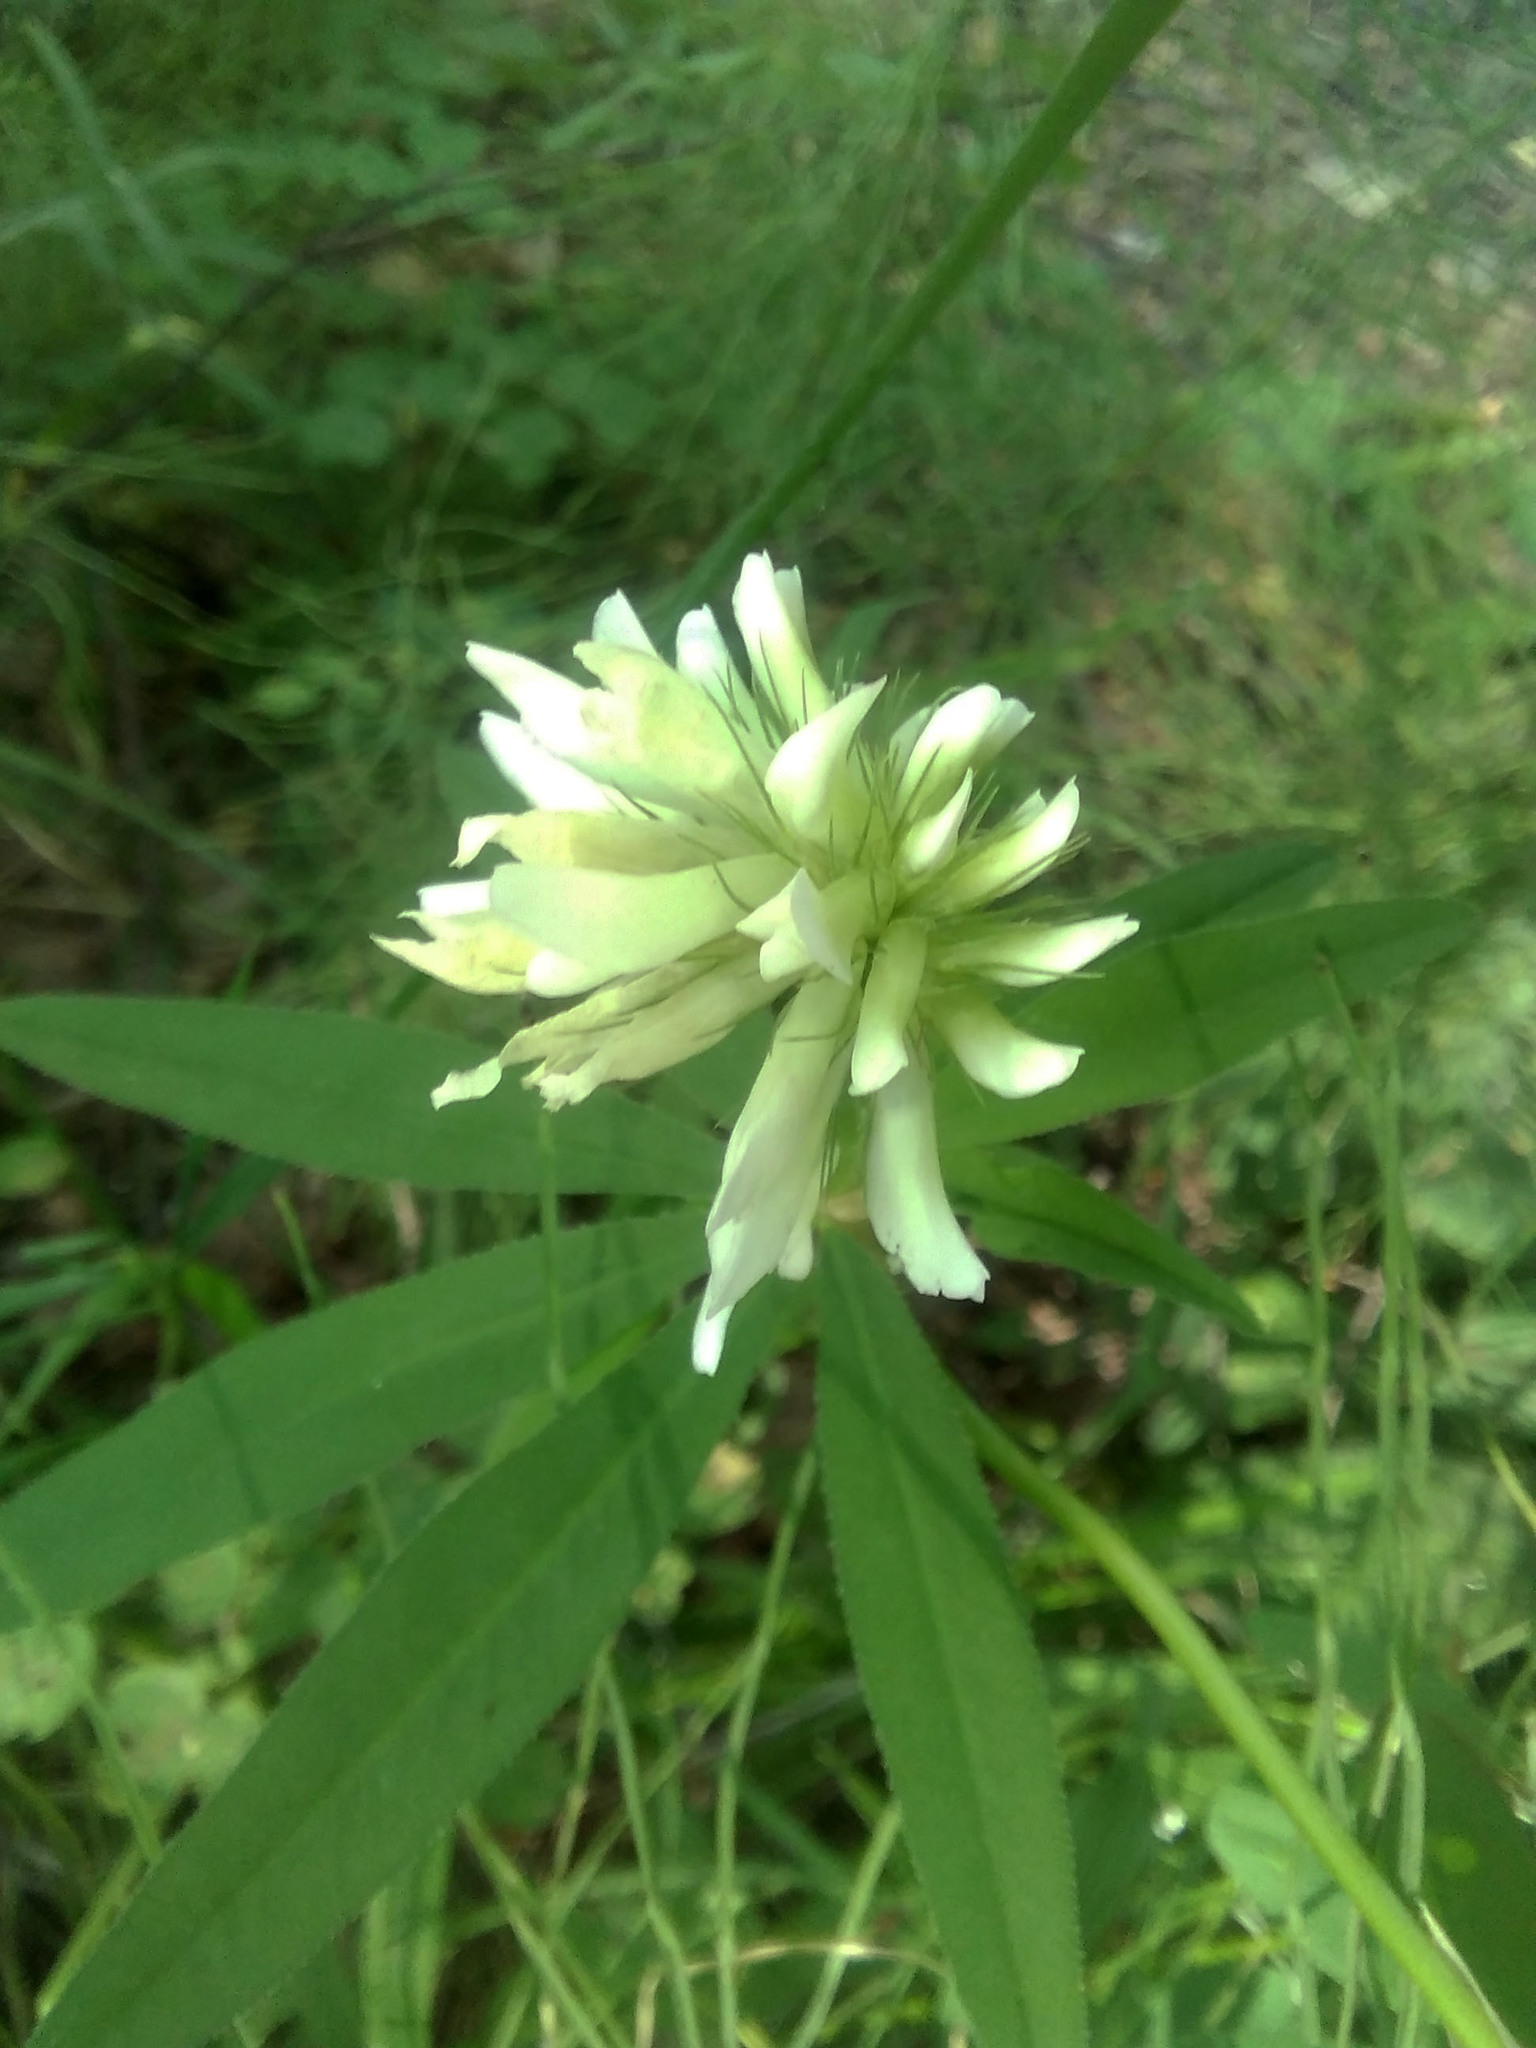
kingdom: Plantae
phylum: Tracheophyta
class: Magnoliopsida
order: Fabales
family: Fabaceae
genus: Trifolium
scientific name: Trifolium lupinaster
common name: Lupine clover
